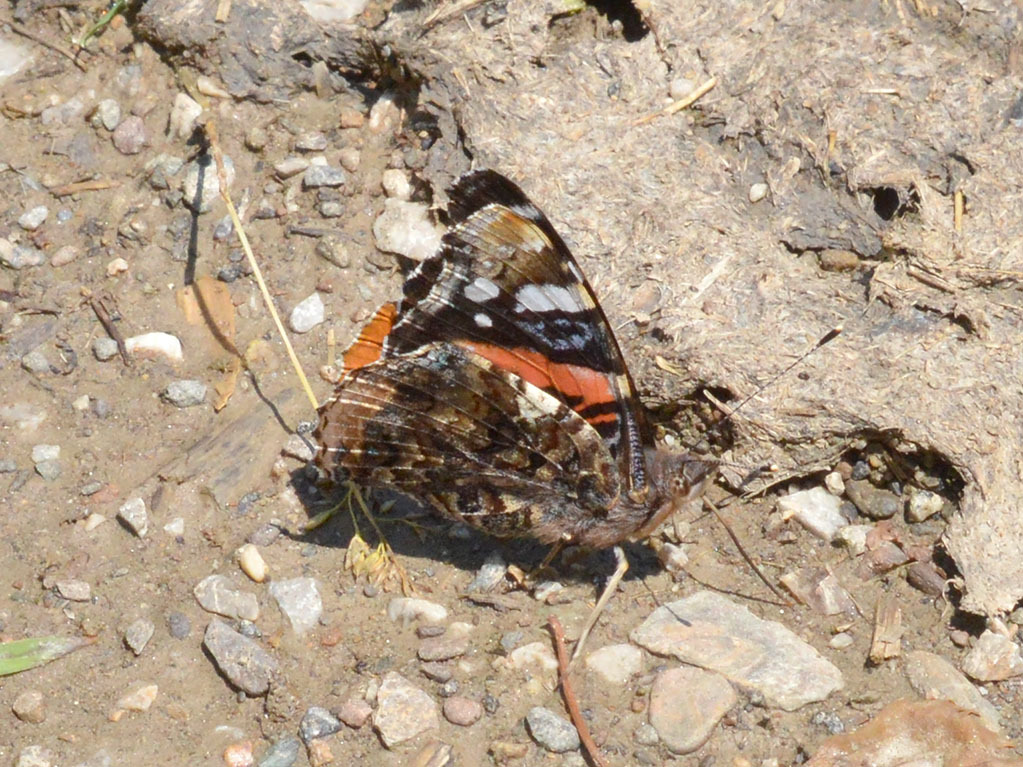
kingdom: Animalia
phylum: Arthropoda
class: Insecta
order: Lepidoptera
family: Nymphalidae
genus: Vanessa
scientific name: Vanessa atalanta
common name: Red admiral
